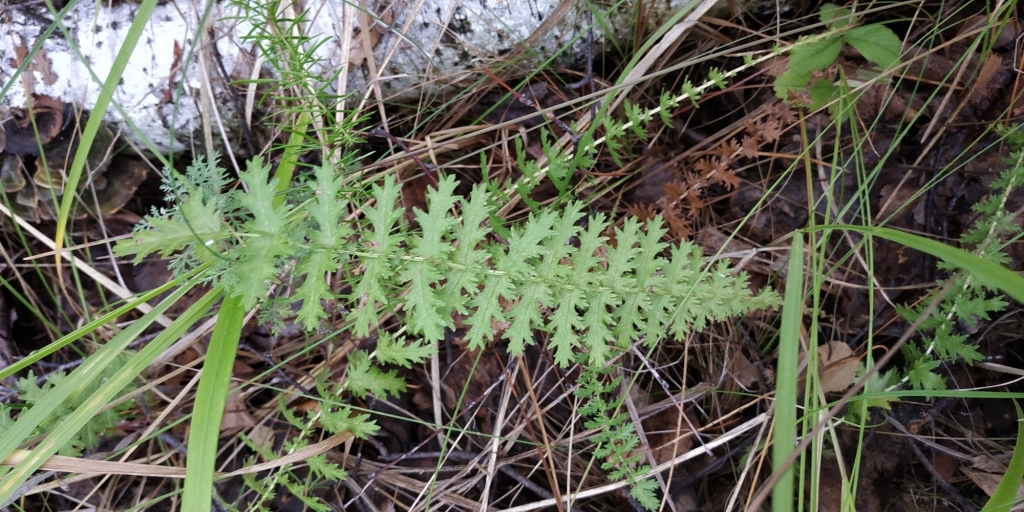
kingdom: Plantae
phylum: Tracheophyta
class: Magnoliopsida
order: Rosales
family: Rosaceae
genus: Filipendula
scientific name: Filipendula vulgaris
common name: Dropwort
